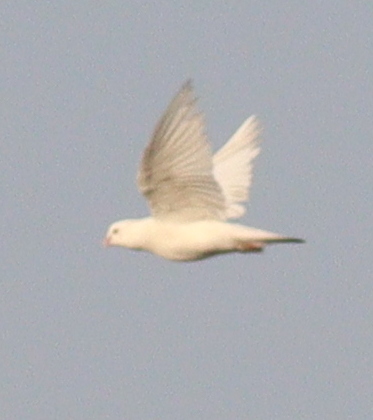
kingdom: Animalia
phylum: Chordata
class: Aves
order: Columbiformes
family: Columbidae
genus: Columba
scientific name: Columba livia
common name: Rock pigeon
